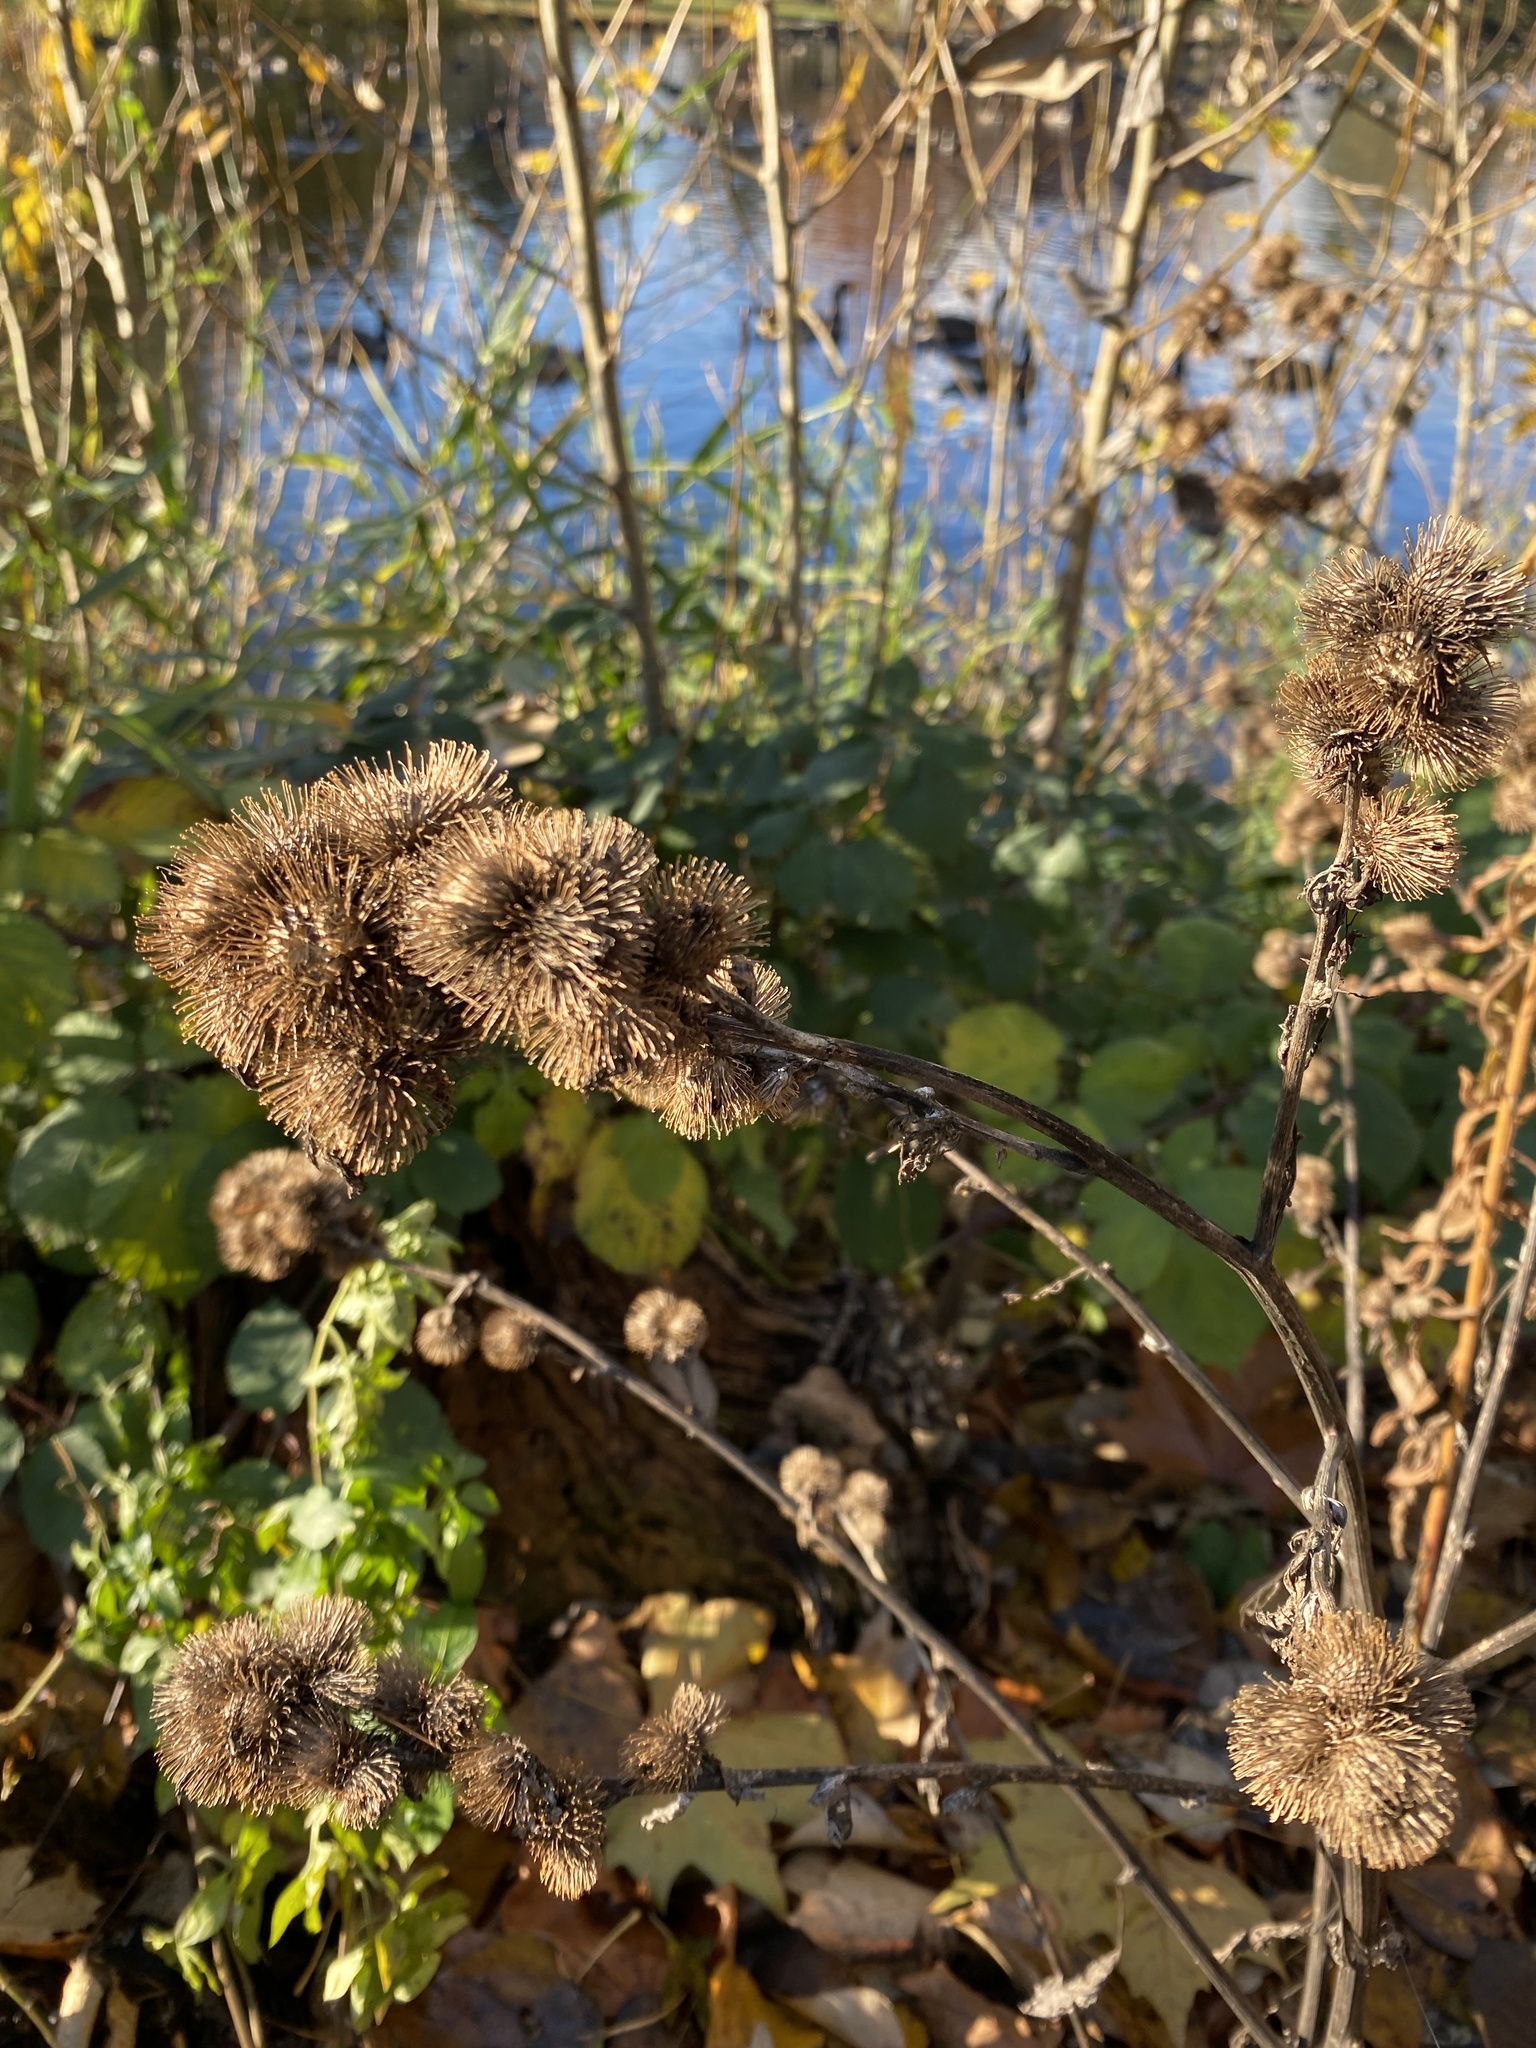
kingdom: Plantae
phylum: Tracheophyta
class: Magnoliopsida
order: Asterales
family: Asteraceae
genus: Arctium
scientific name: Arctium minus
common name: Lesser burdock
